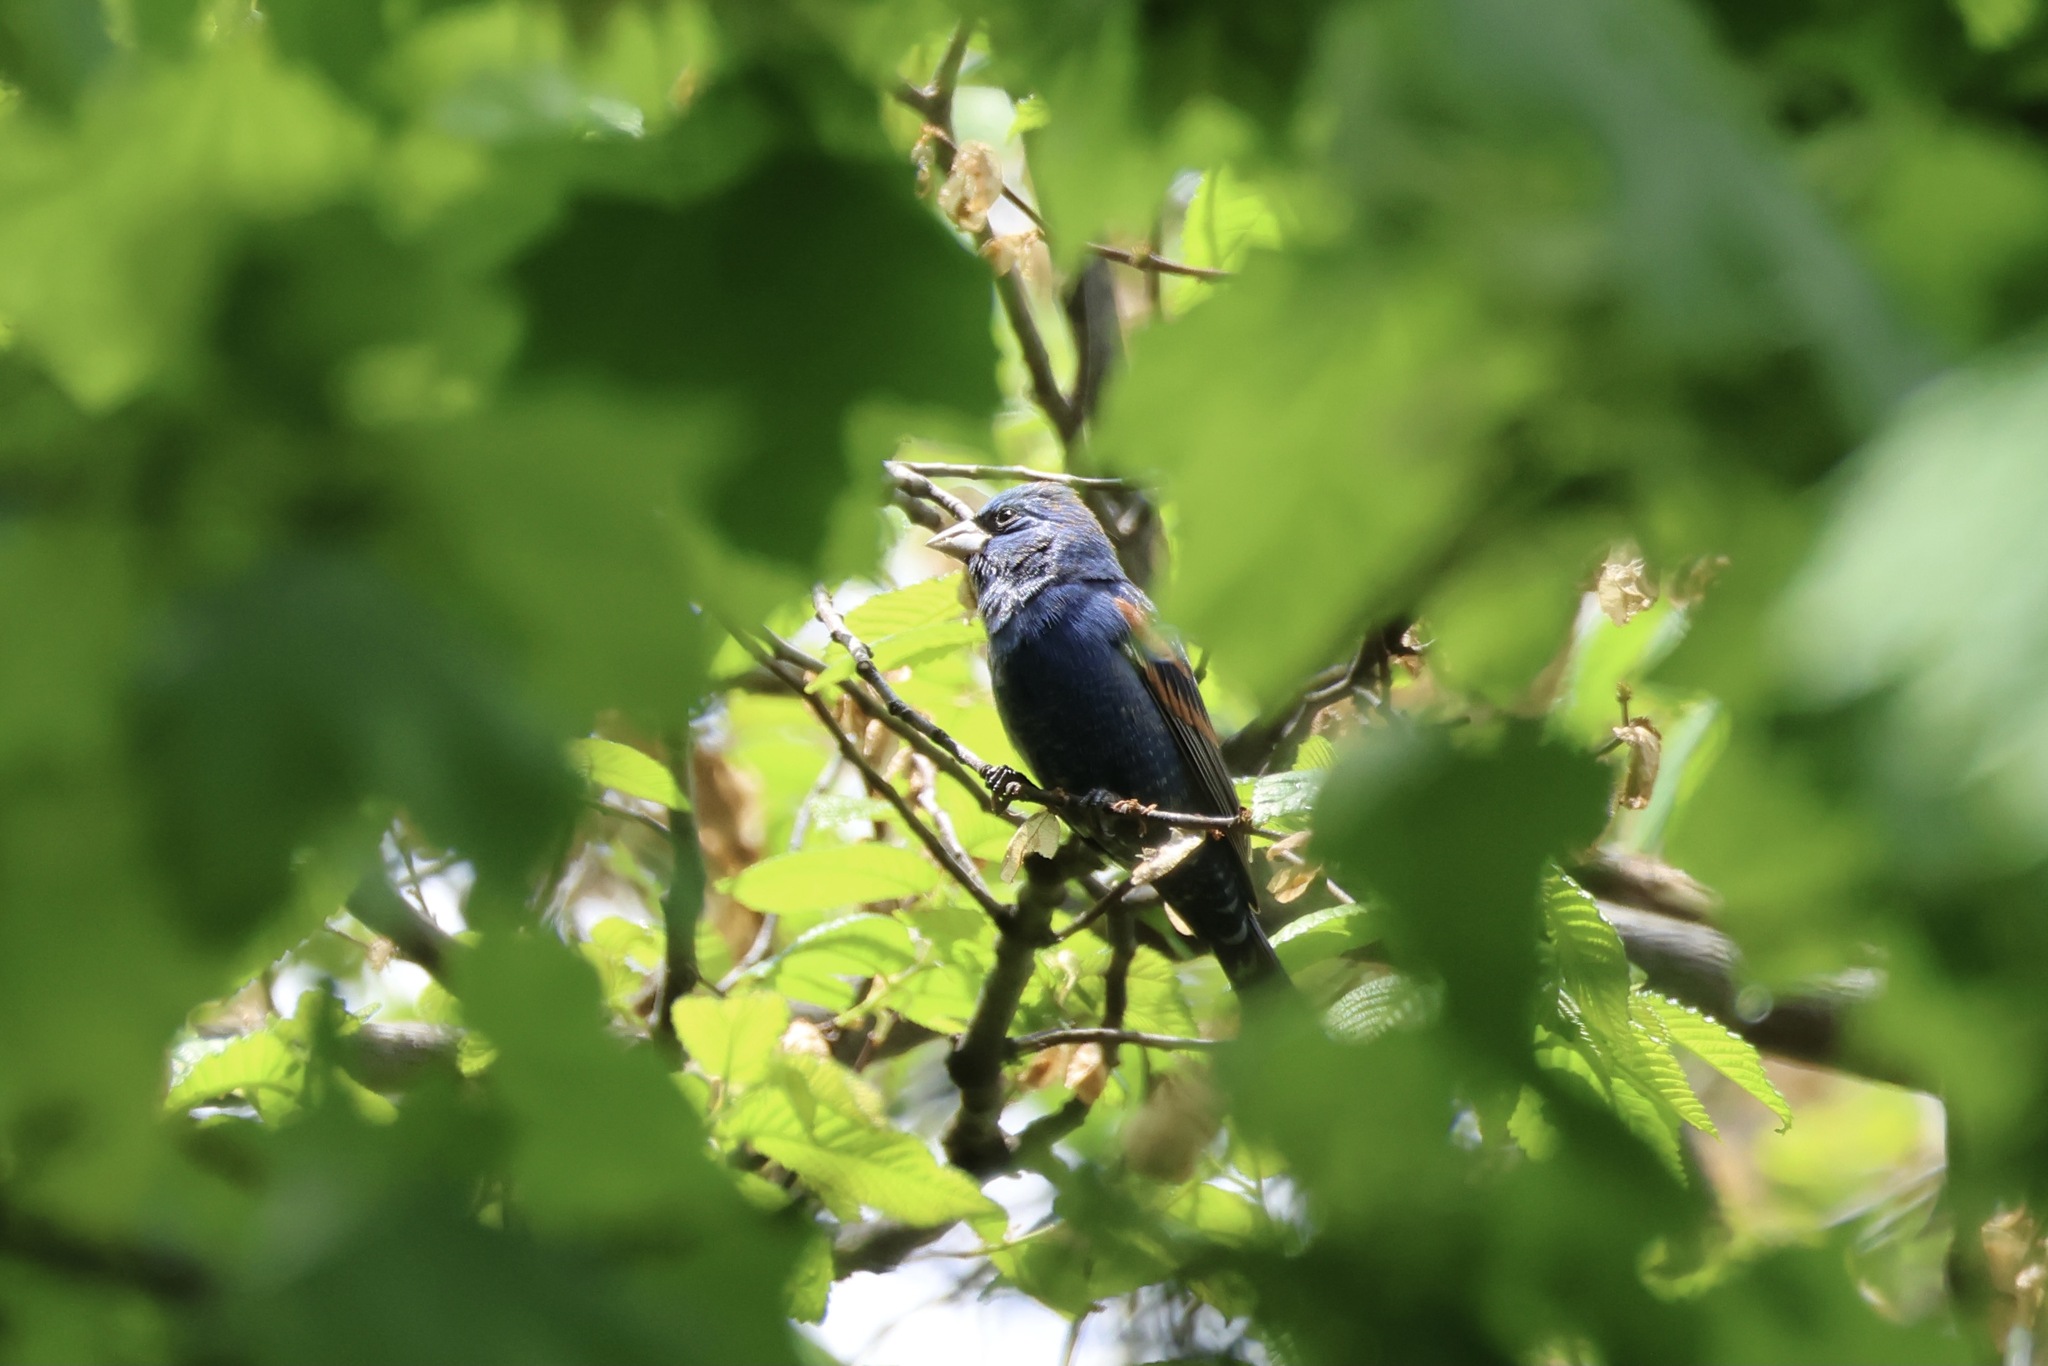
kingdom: Animalia
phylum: Chordata
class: Aves
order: Passeriformes
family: Cardinalidae
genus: Passerina
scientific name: Passerina caerulea
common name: Blue grosbeak
